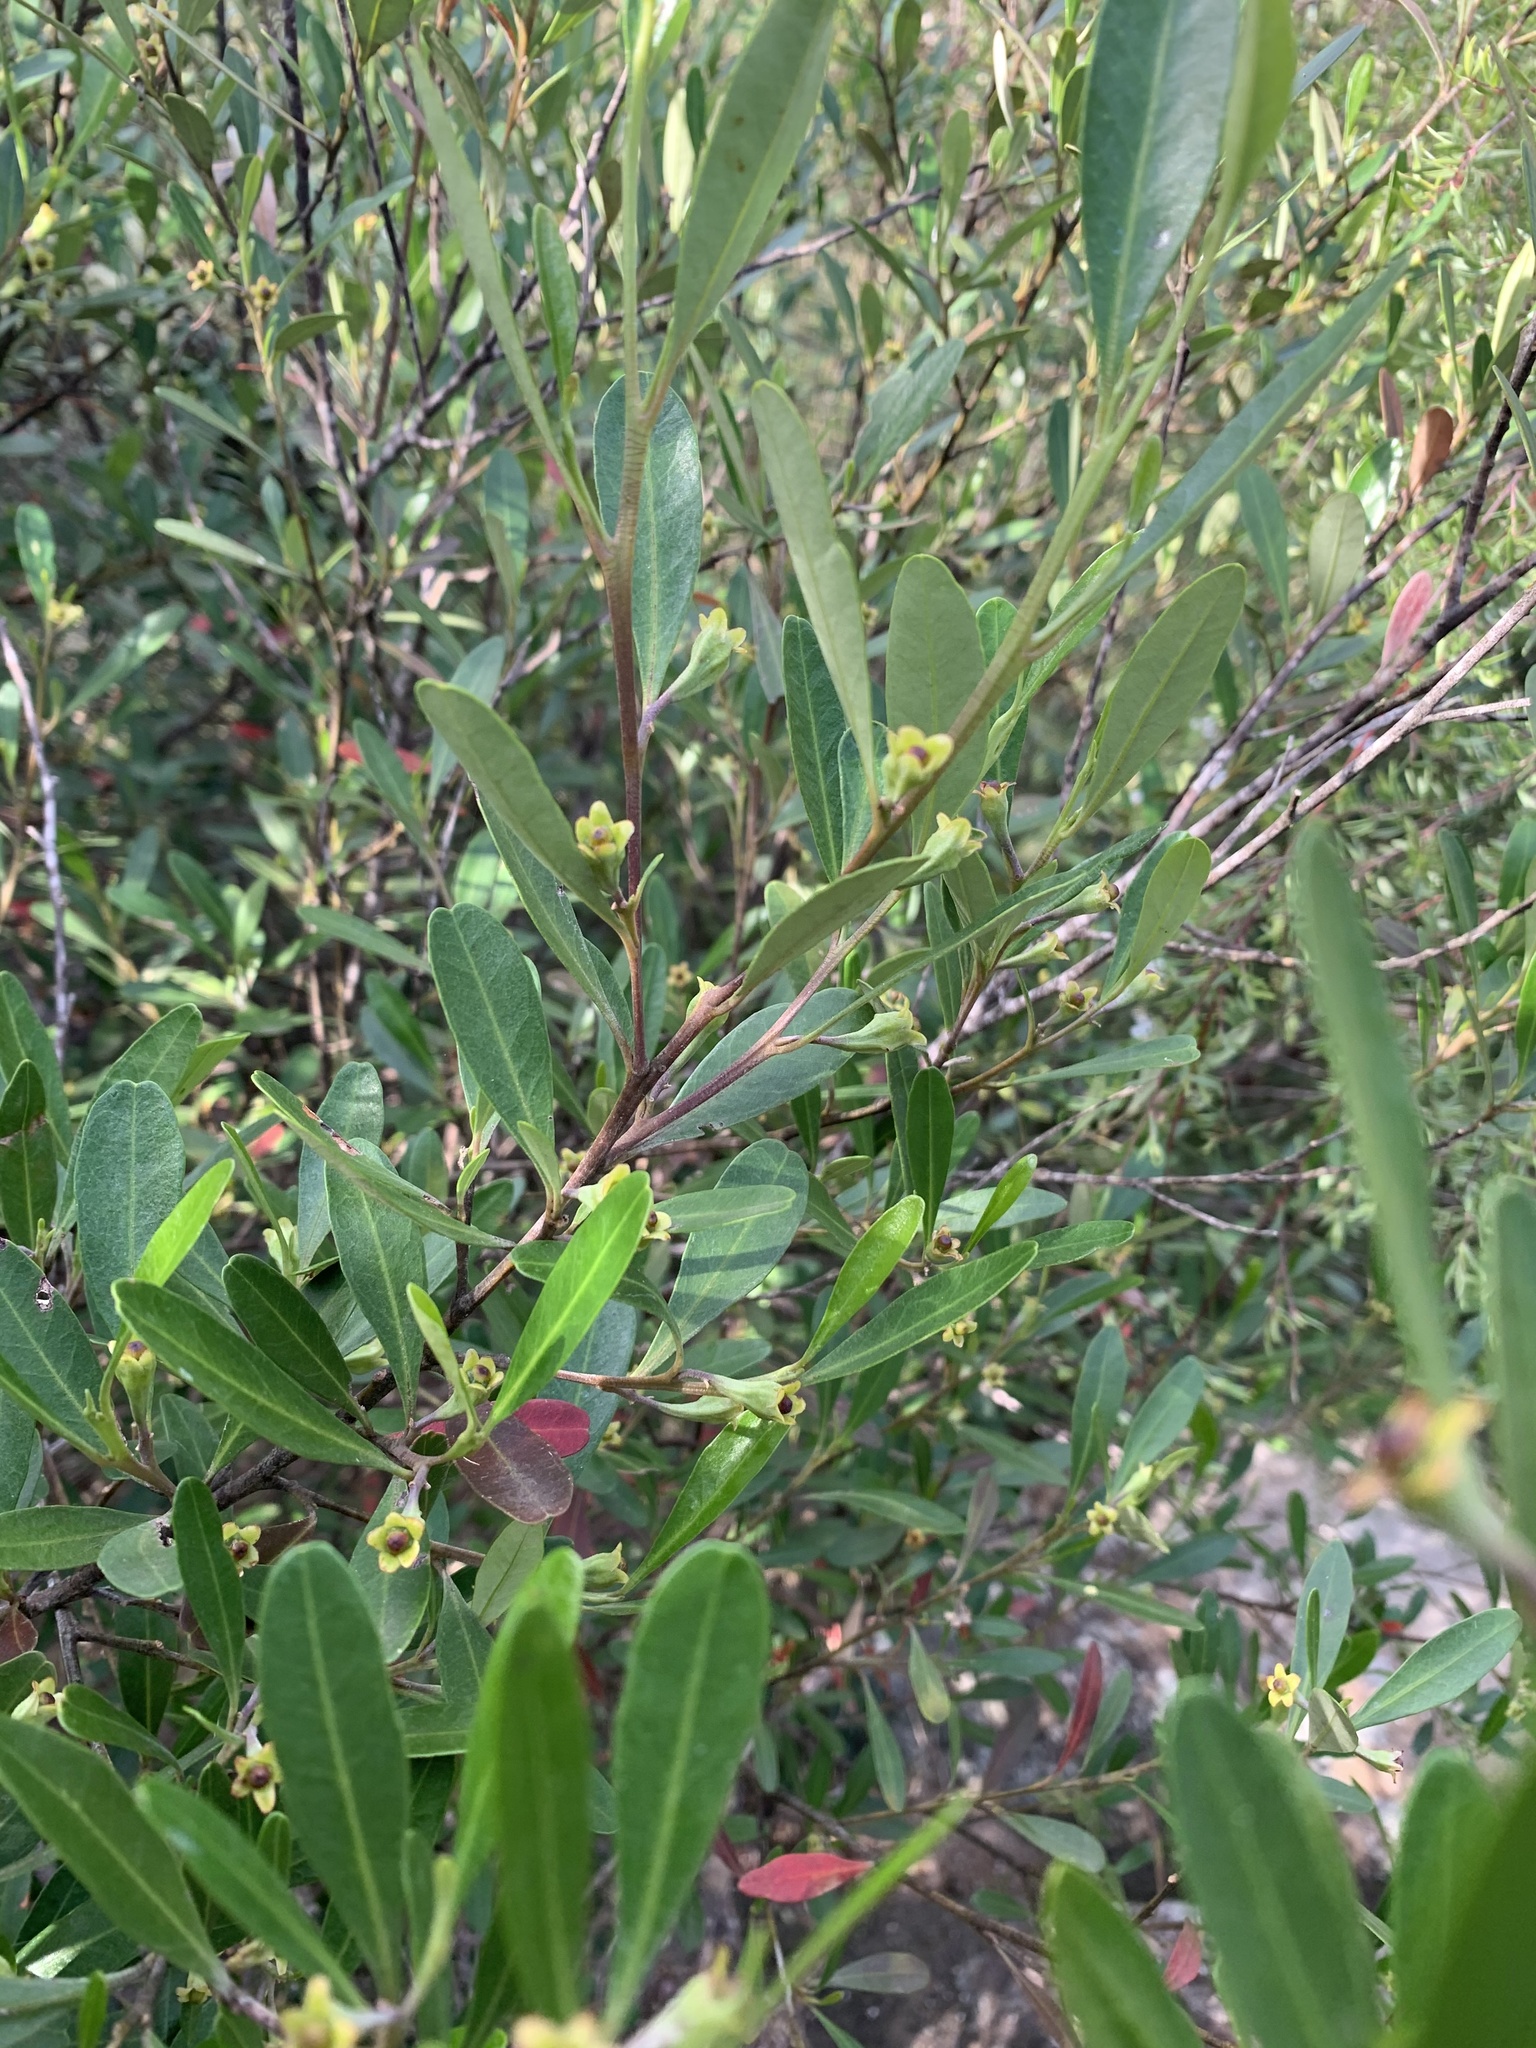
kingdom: Plantae
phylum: Tracheophyta
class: Magnoliopsida
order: Malpighiales
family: Euphorbiaceae
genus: Beyeria
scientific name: Beyeria viscosa
